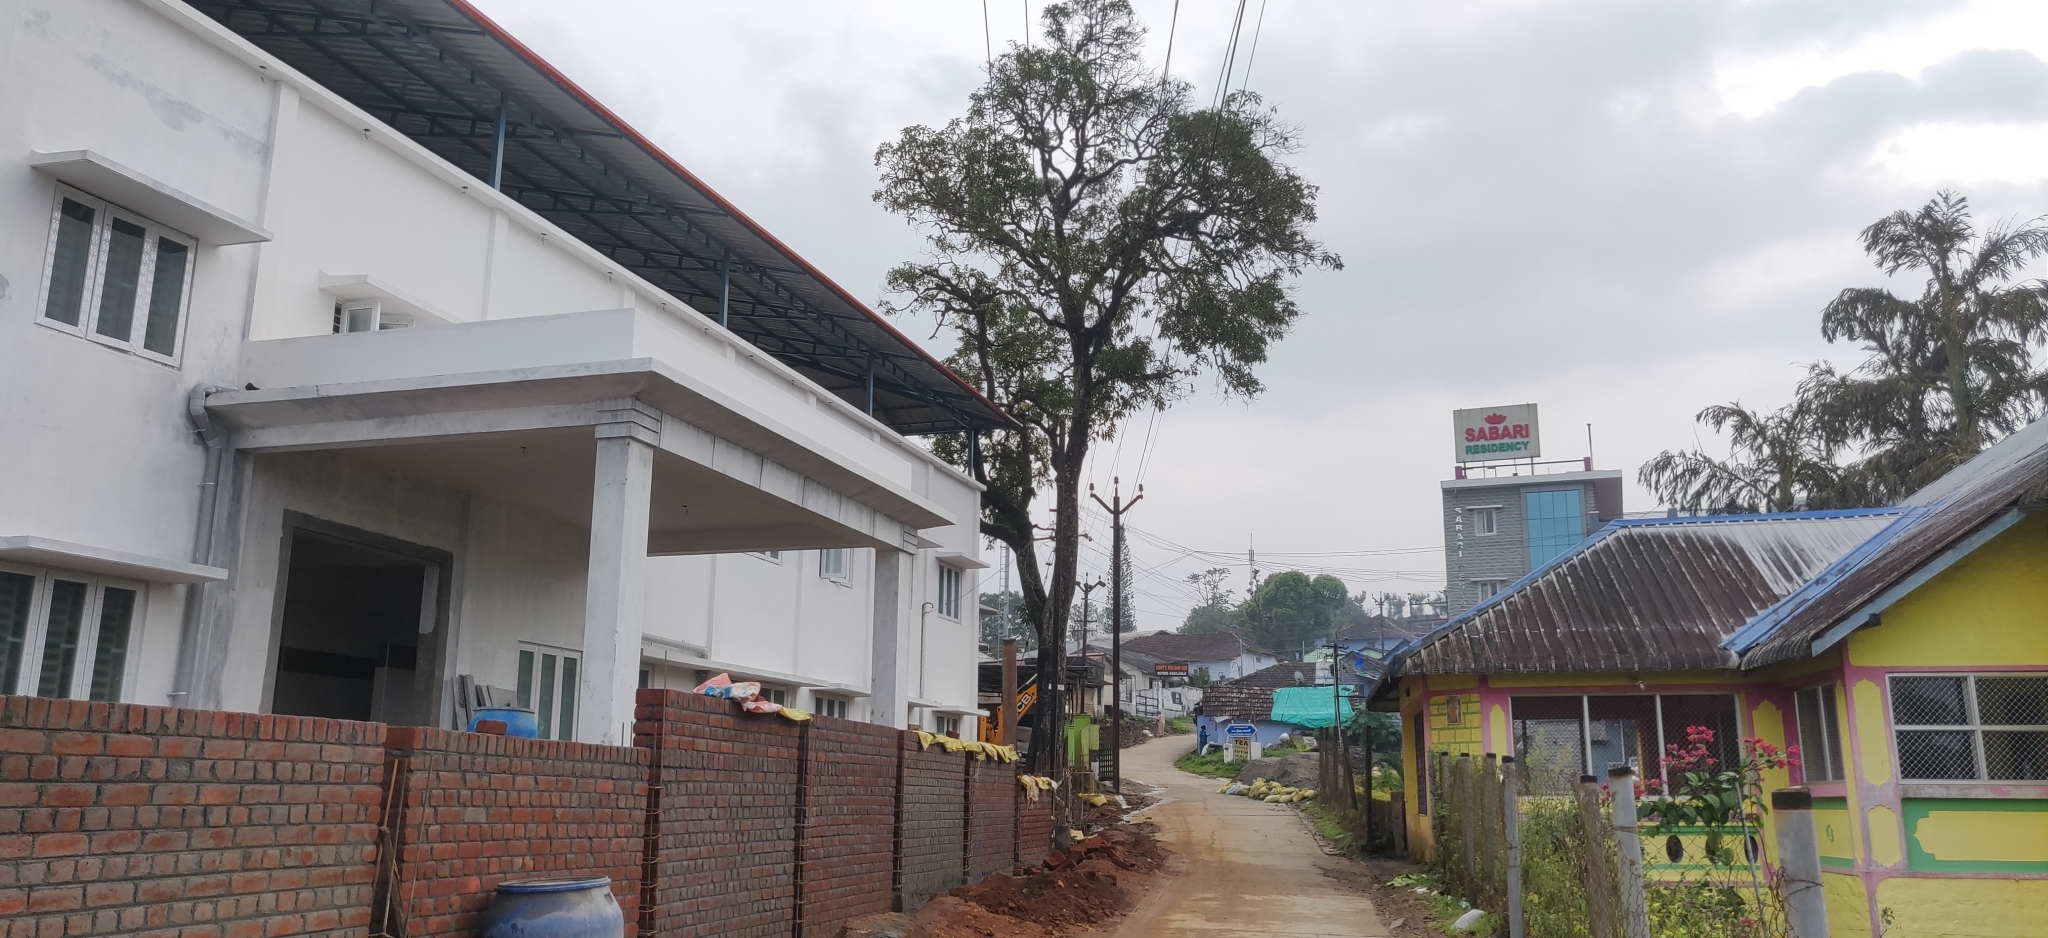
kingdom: Plantae
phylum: Tracheophyta
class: Magnoliopsida
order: Sapindales
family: Anacardiaceae
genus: Mangifera
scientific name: Mangifera indica
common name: Mango
